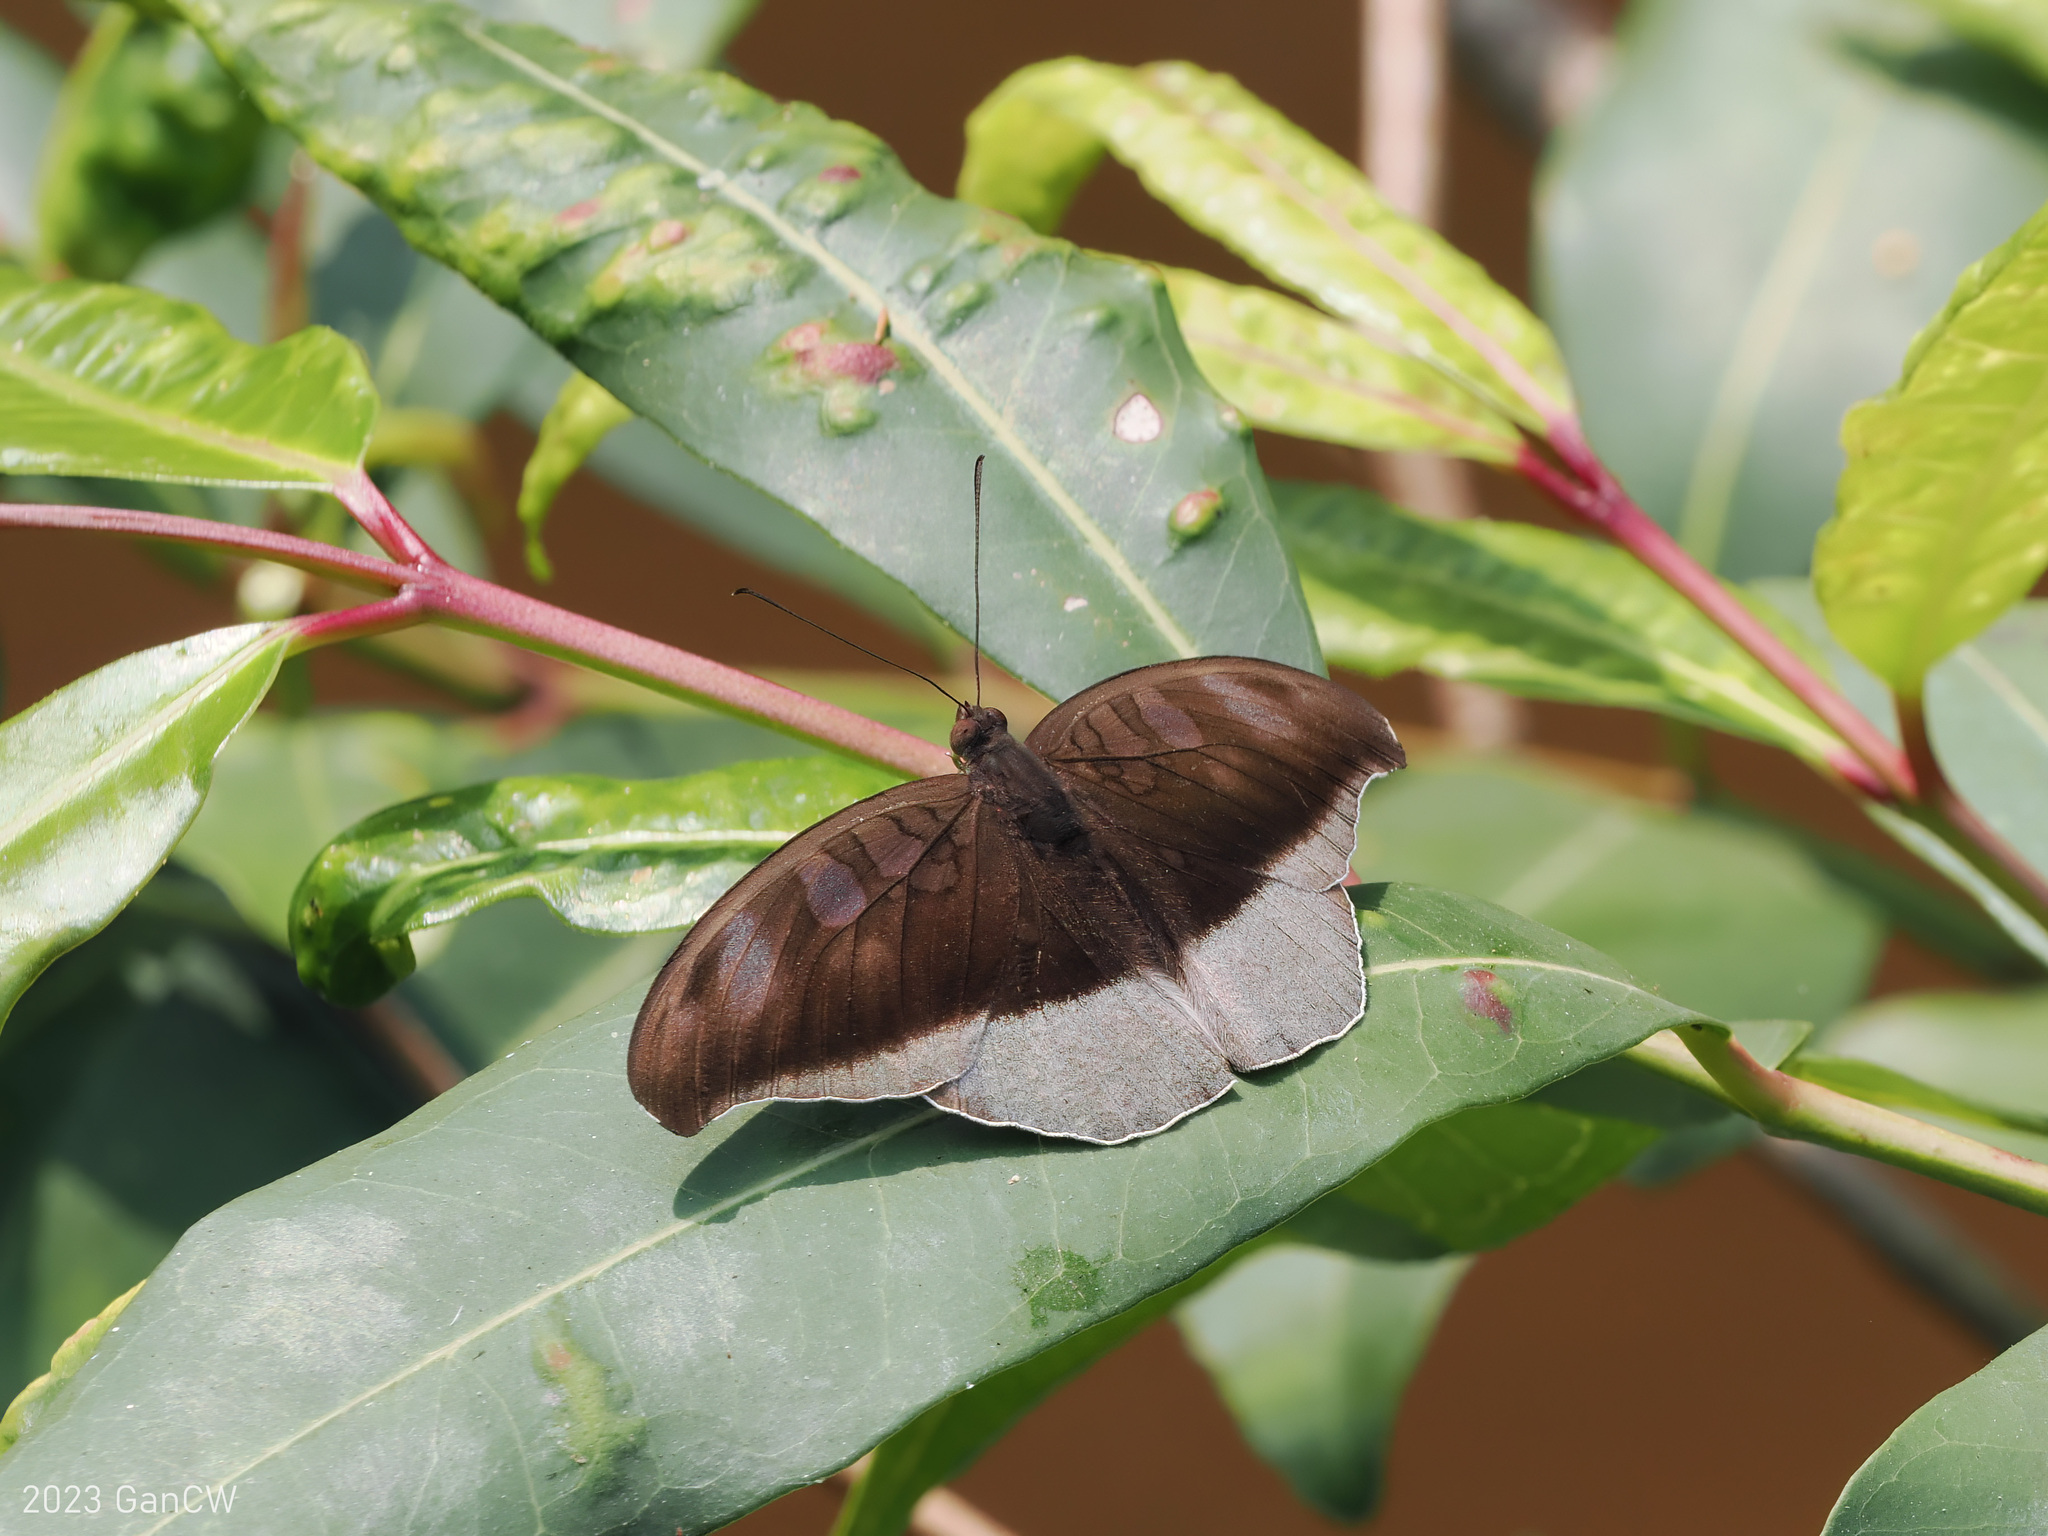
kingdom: Animalia
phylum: Arthropoda
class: Insecta
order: Lepidoptera
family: Nymphalidae
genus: Tanaecia
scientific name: Tanaecia lepidea
